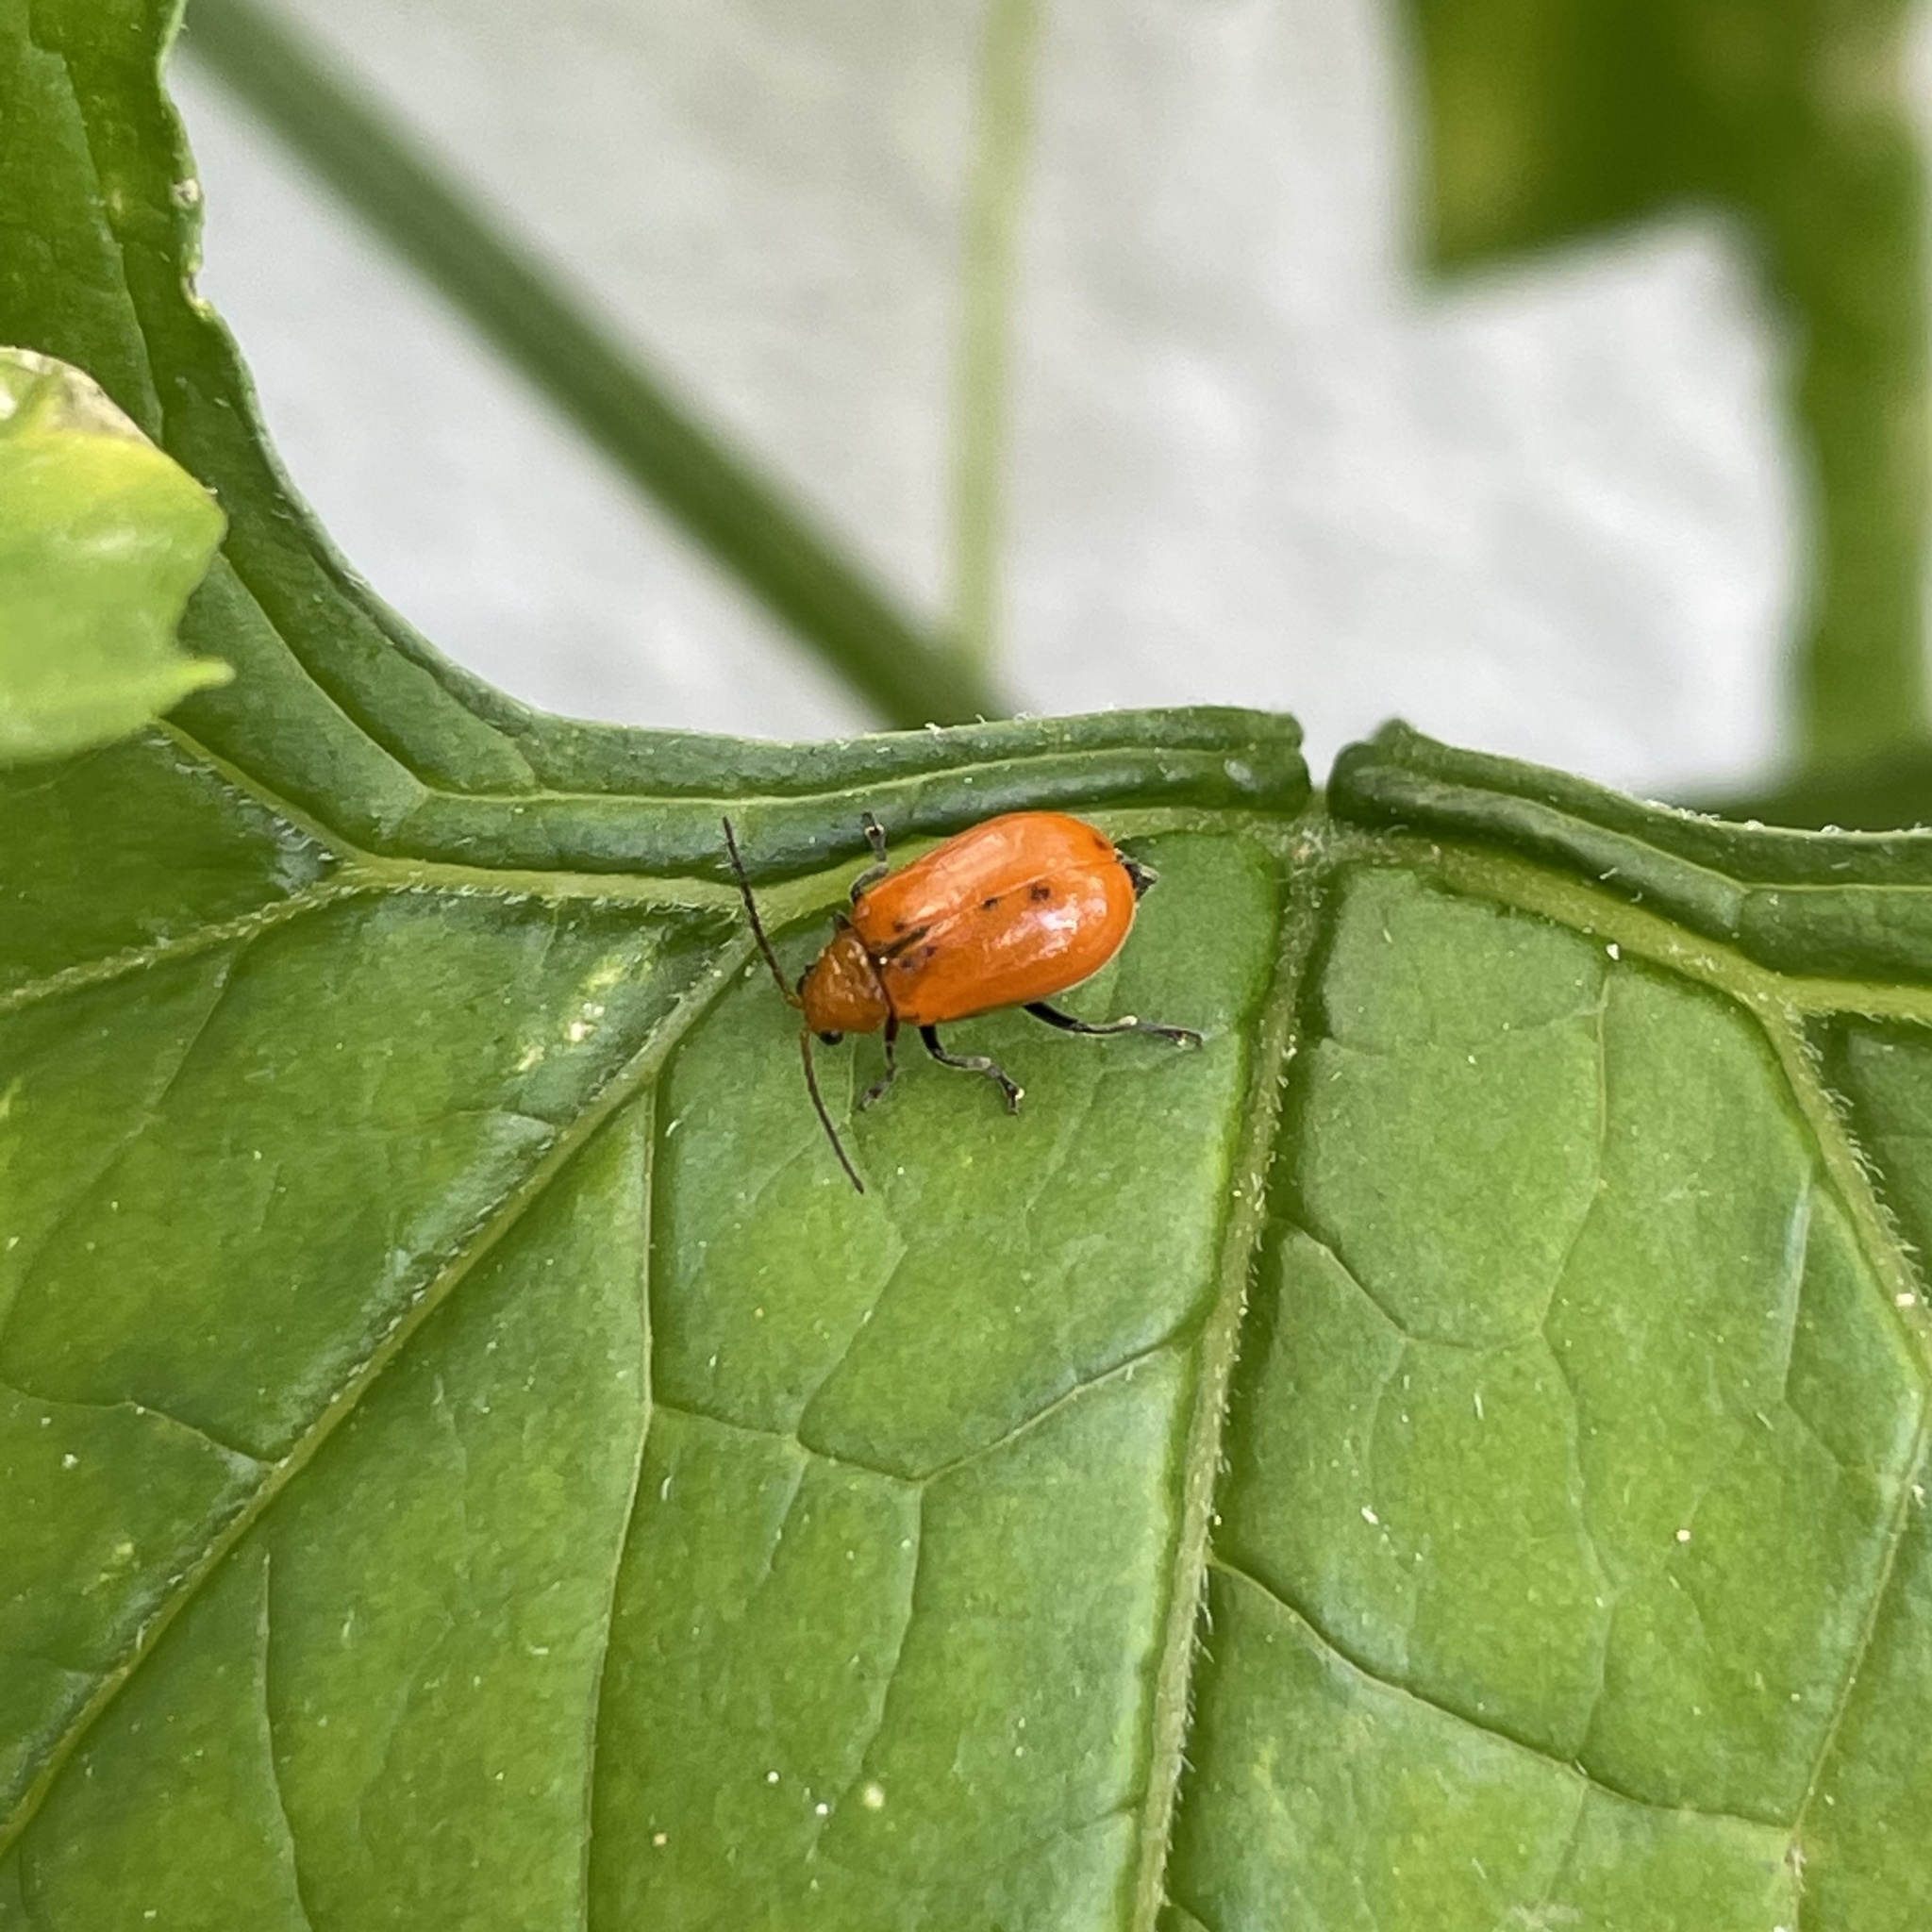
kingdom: Animalia
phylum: Arthropoda
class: Insecta
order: Coleoptera
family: Chrysomelidae
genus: Aulacophora
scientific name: Aulacophora indica
